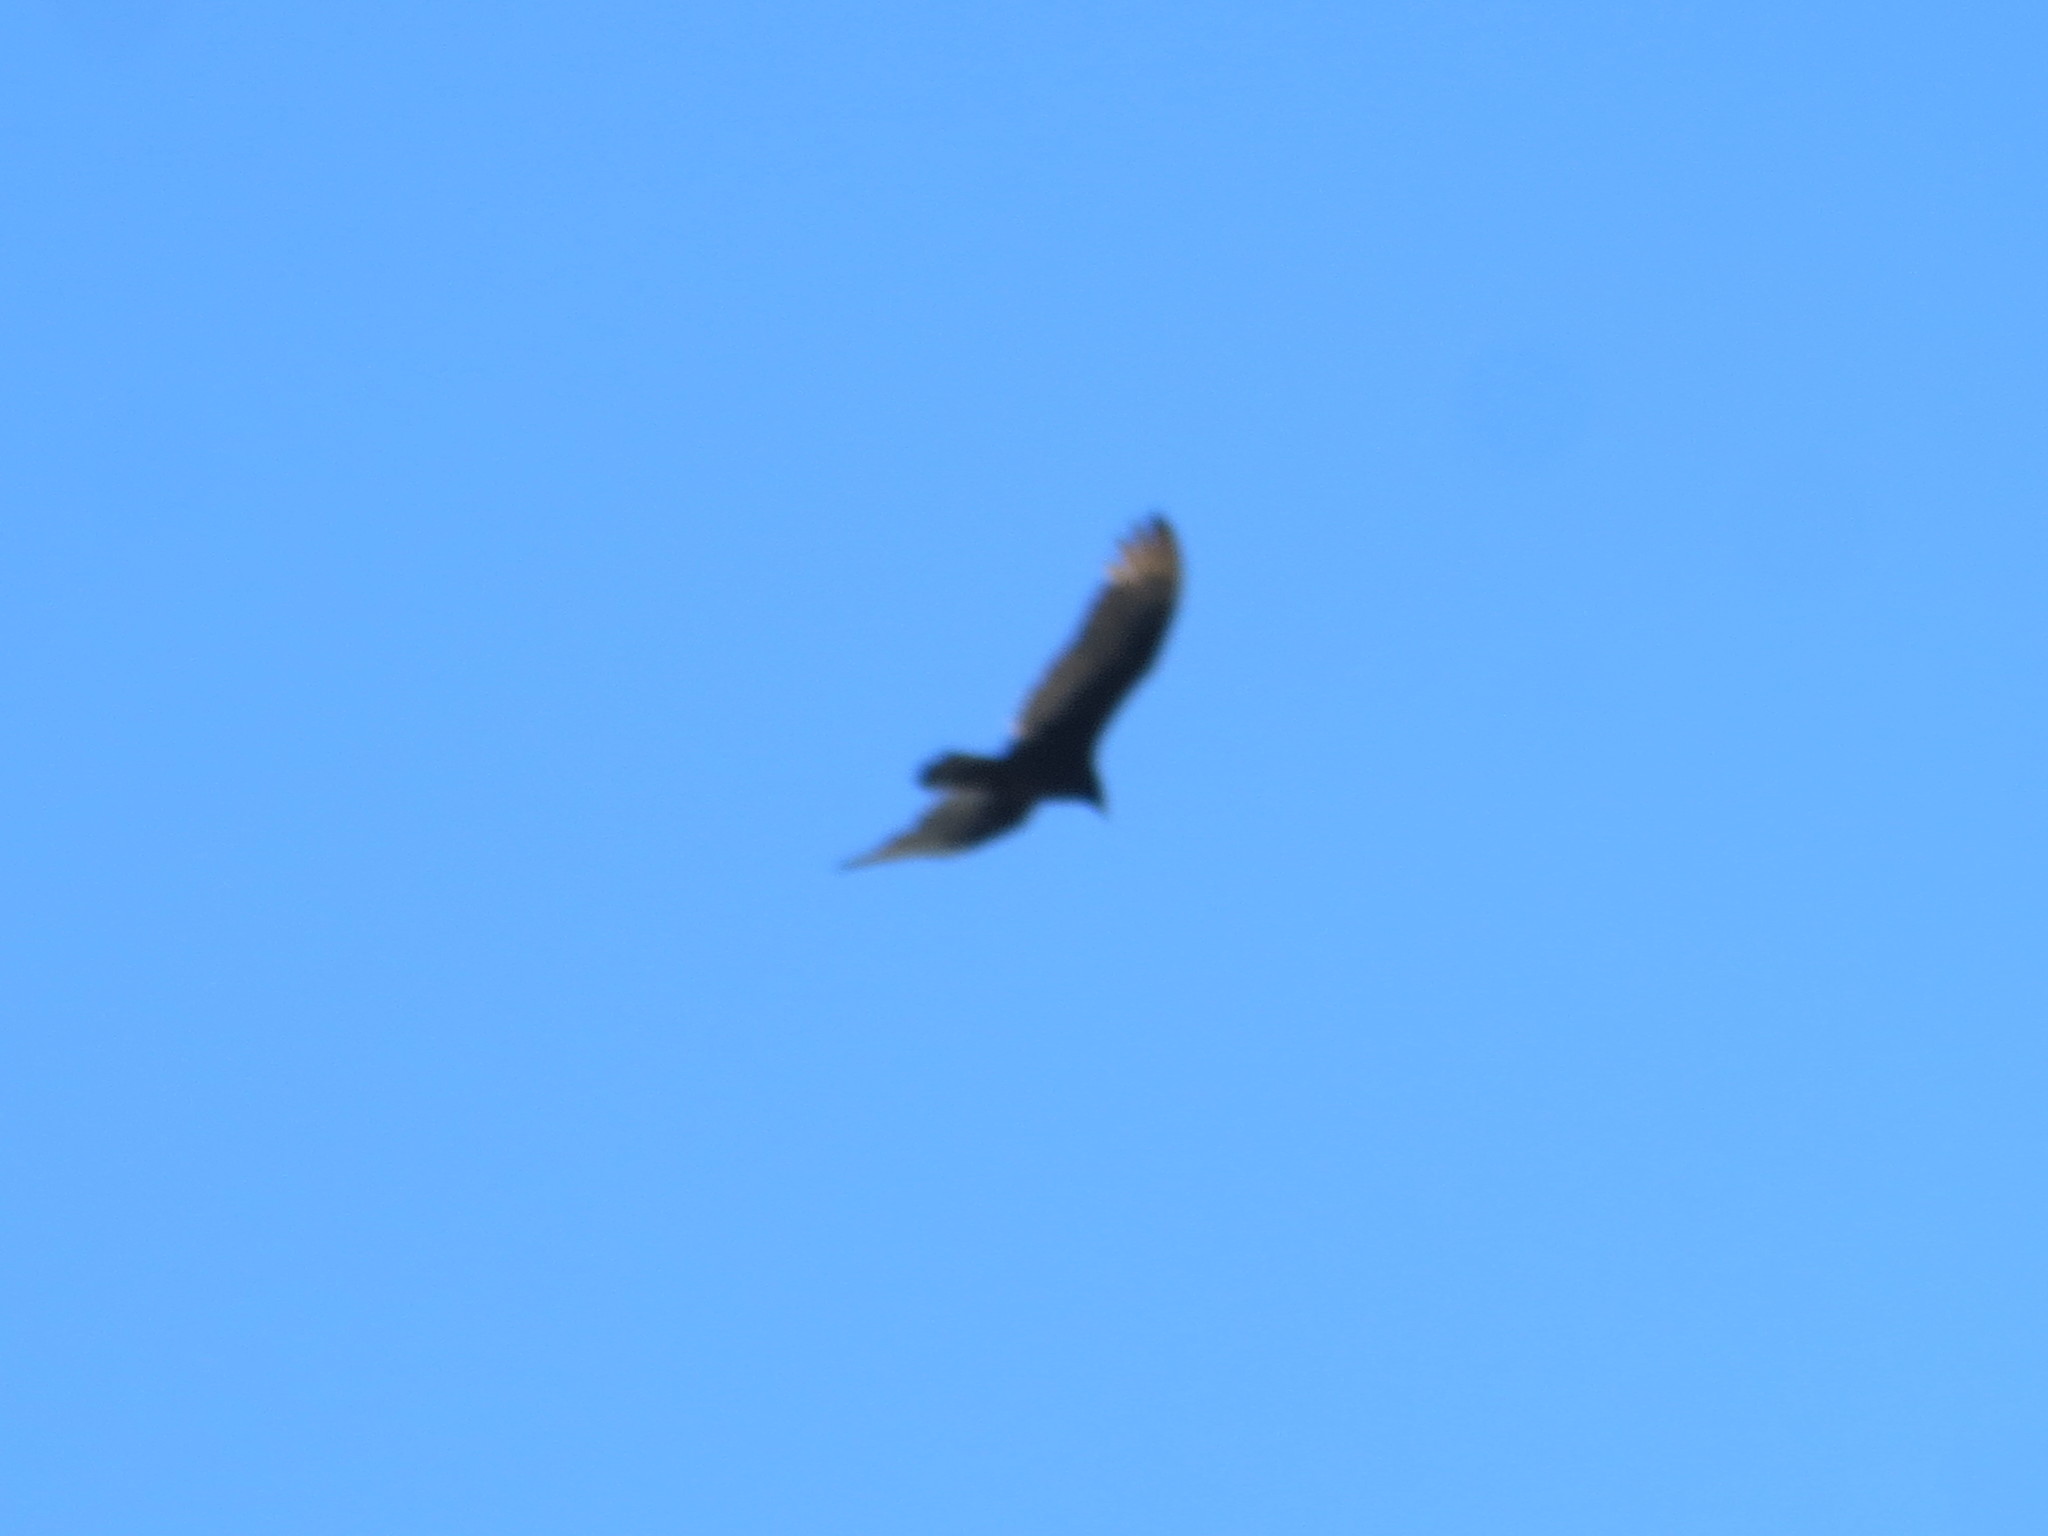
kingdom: Animalia
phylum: Chordata
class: Aves
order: Accipitriformes
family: Cathartidae
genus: Cathartes
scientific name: Cathartes aura
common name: Turkey vulture
